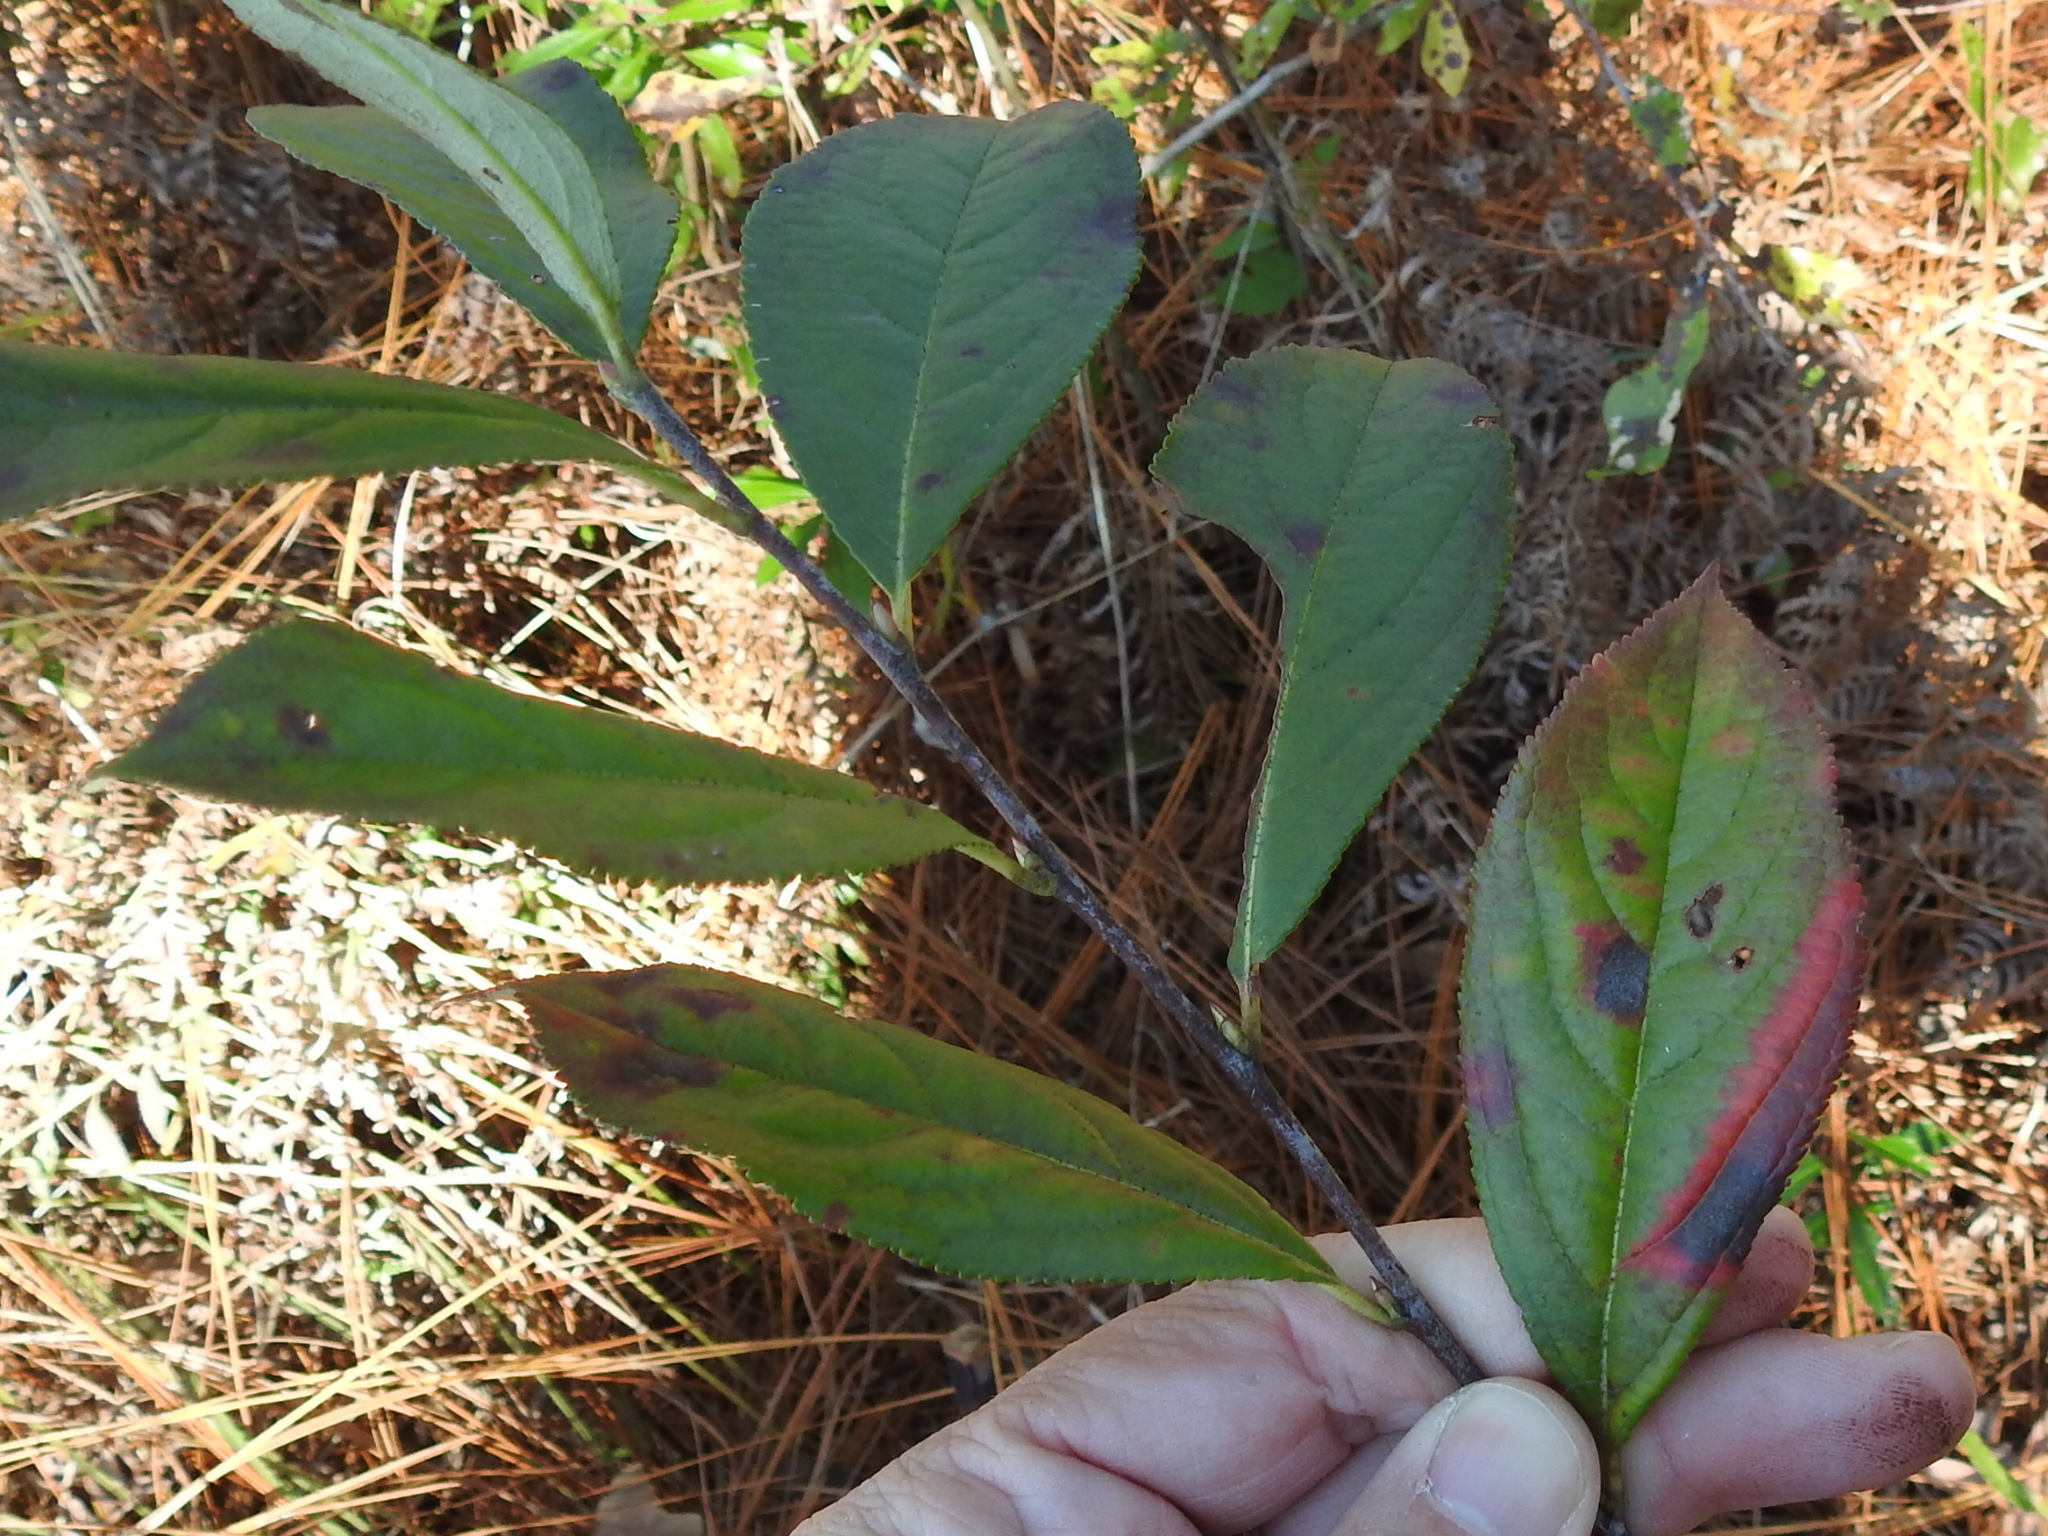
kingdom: Plantae
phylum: Tracheophyta
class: Magnoliopsida
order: Rosales
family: Rosaceae
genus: Aronia
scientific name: Aronia arbutifolia
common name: Red chokeberry
